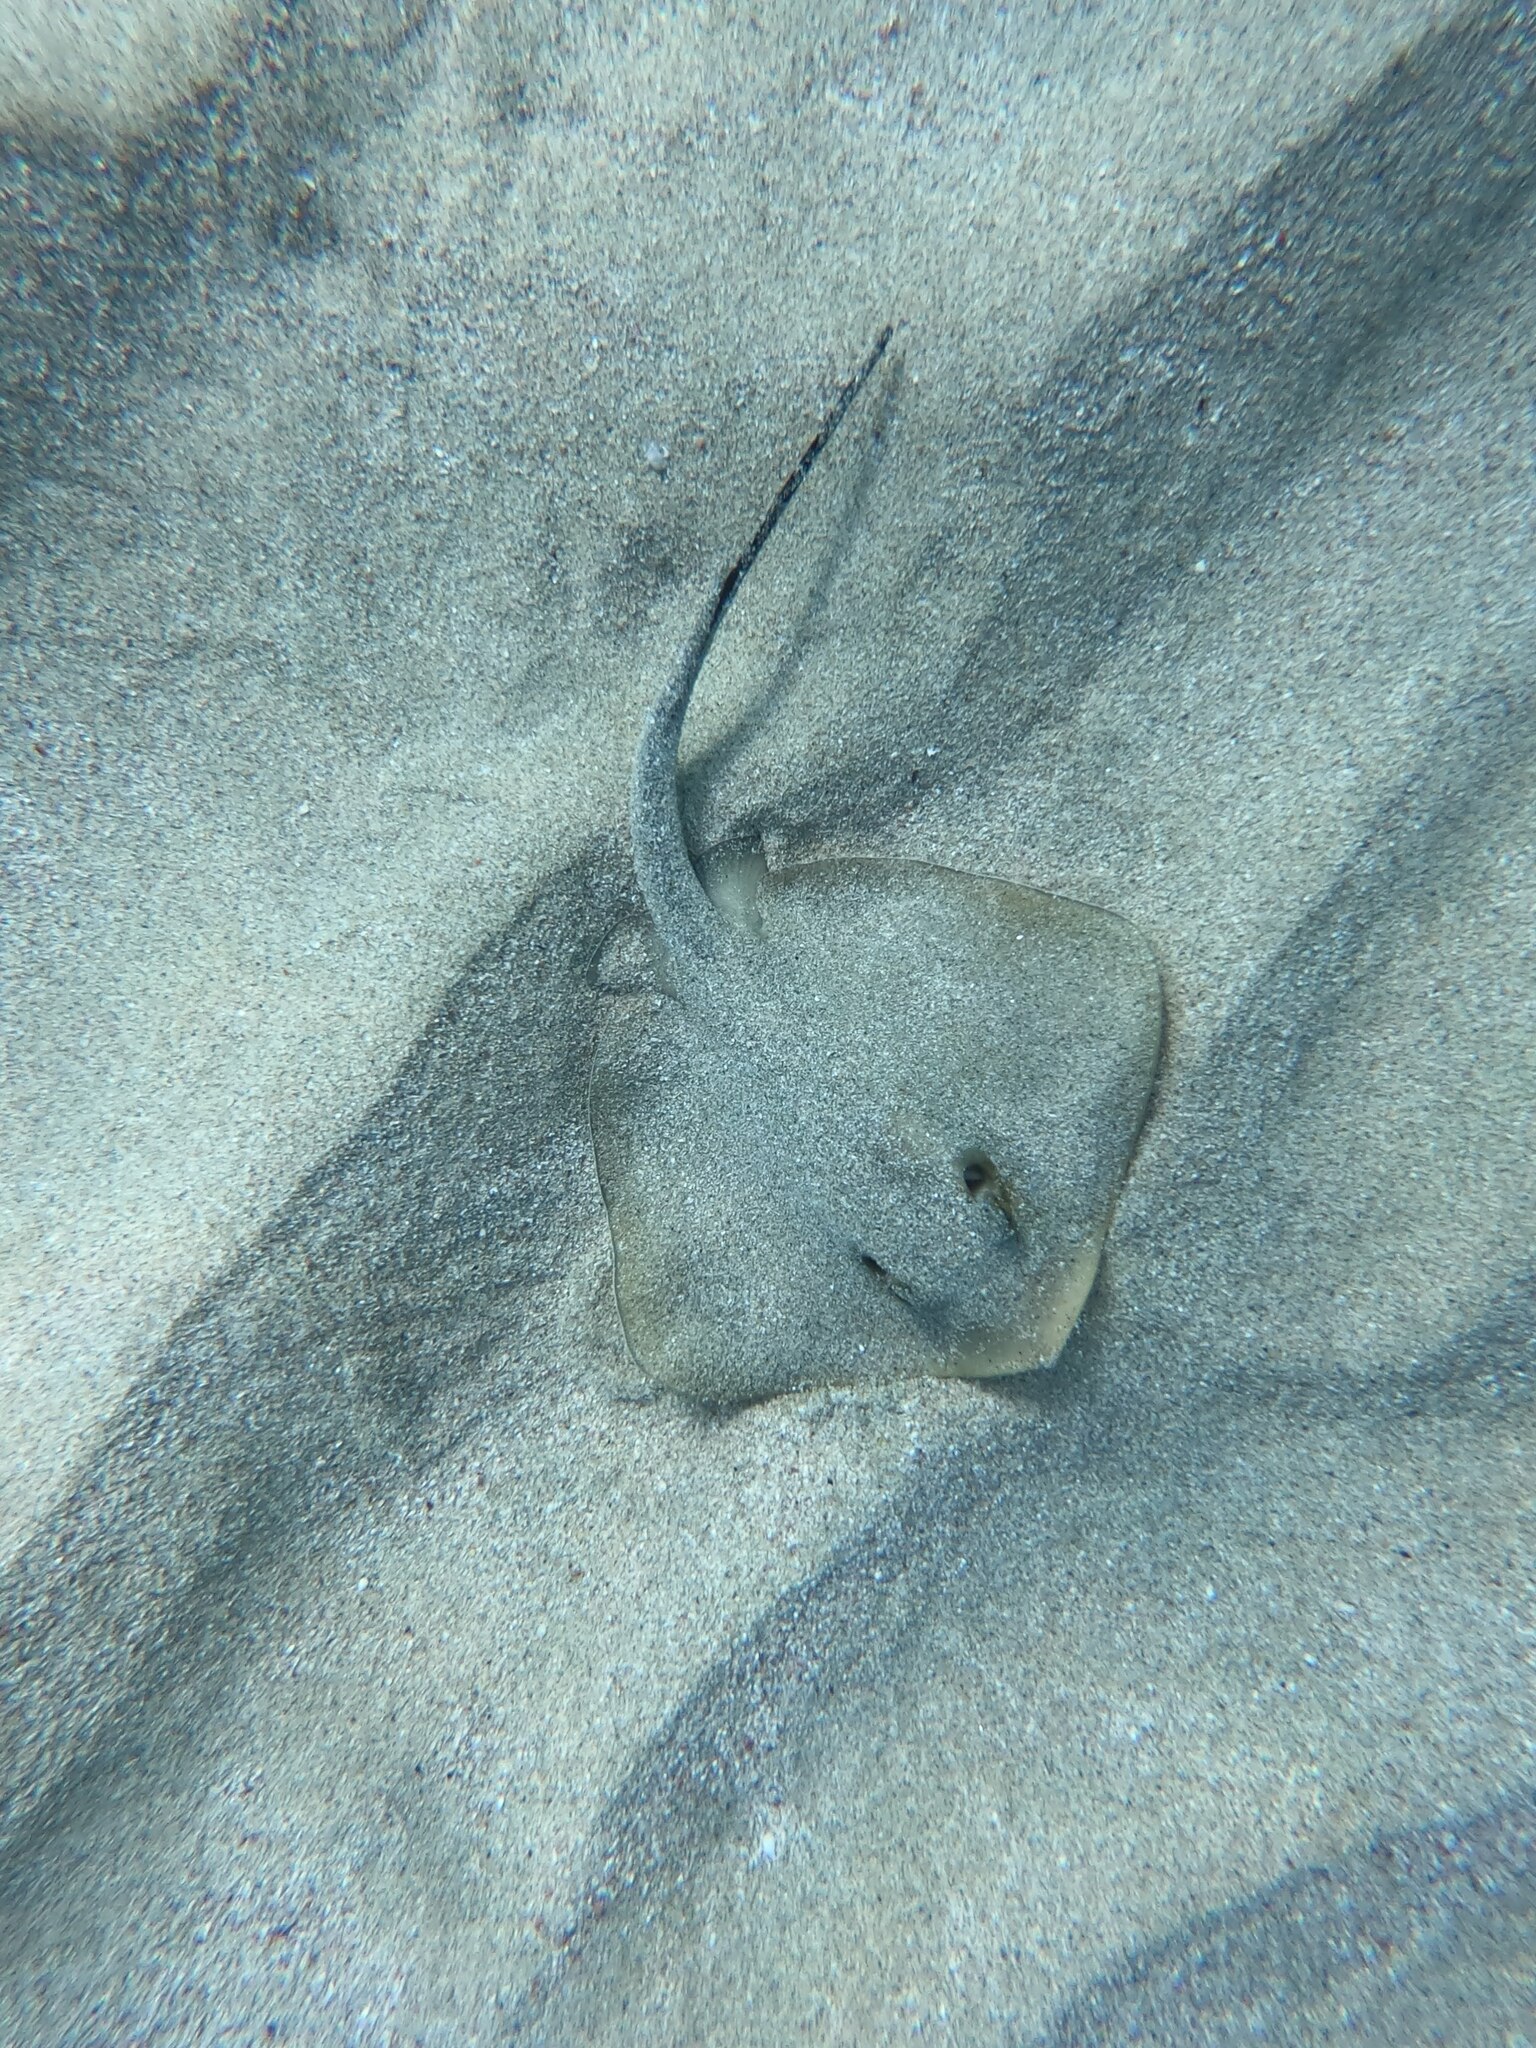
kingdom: Animalia
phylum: Chordata
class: Elasmobranchii
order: Myliobatiformes
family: Dasyatidae
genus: Dasyatis
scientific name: Dasyatis pastinaca
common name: Common stingray
